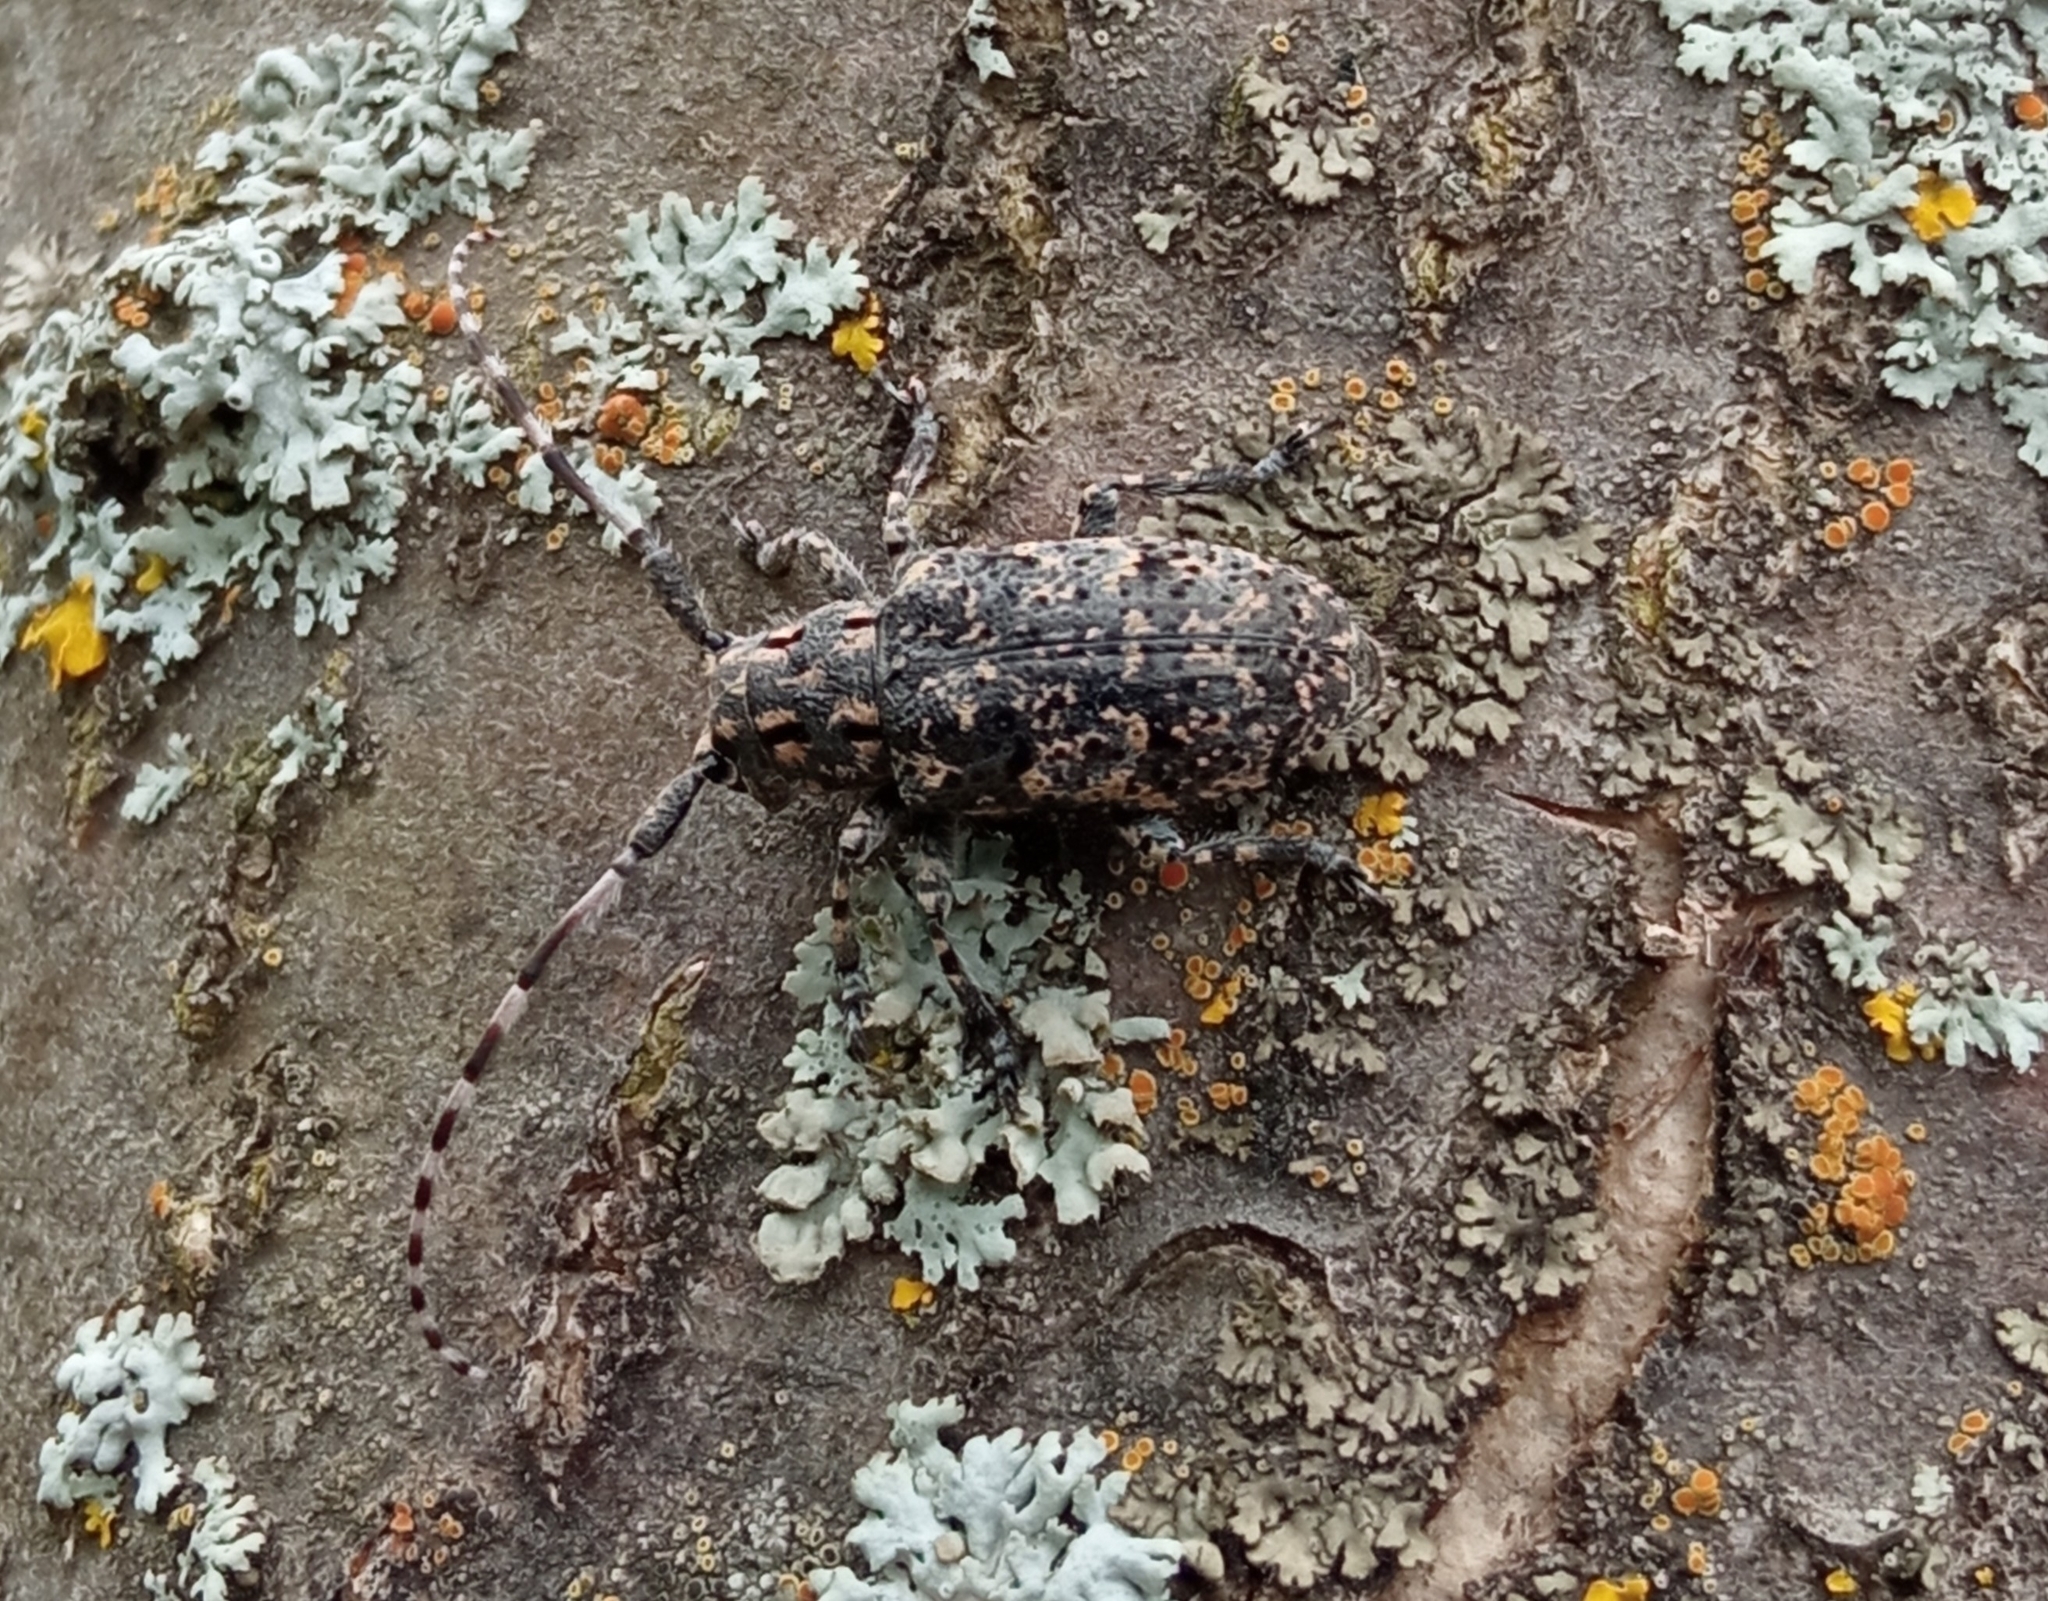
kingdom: Animalia
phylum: Arthropoda
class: Insecta
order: Coleoptera
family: Cerambycidae
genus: Mesosa
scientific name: Mesosa myops
